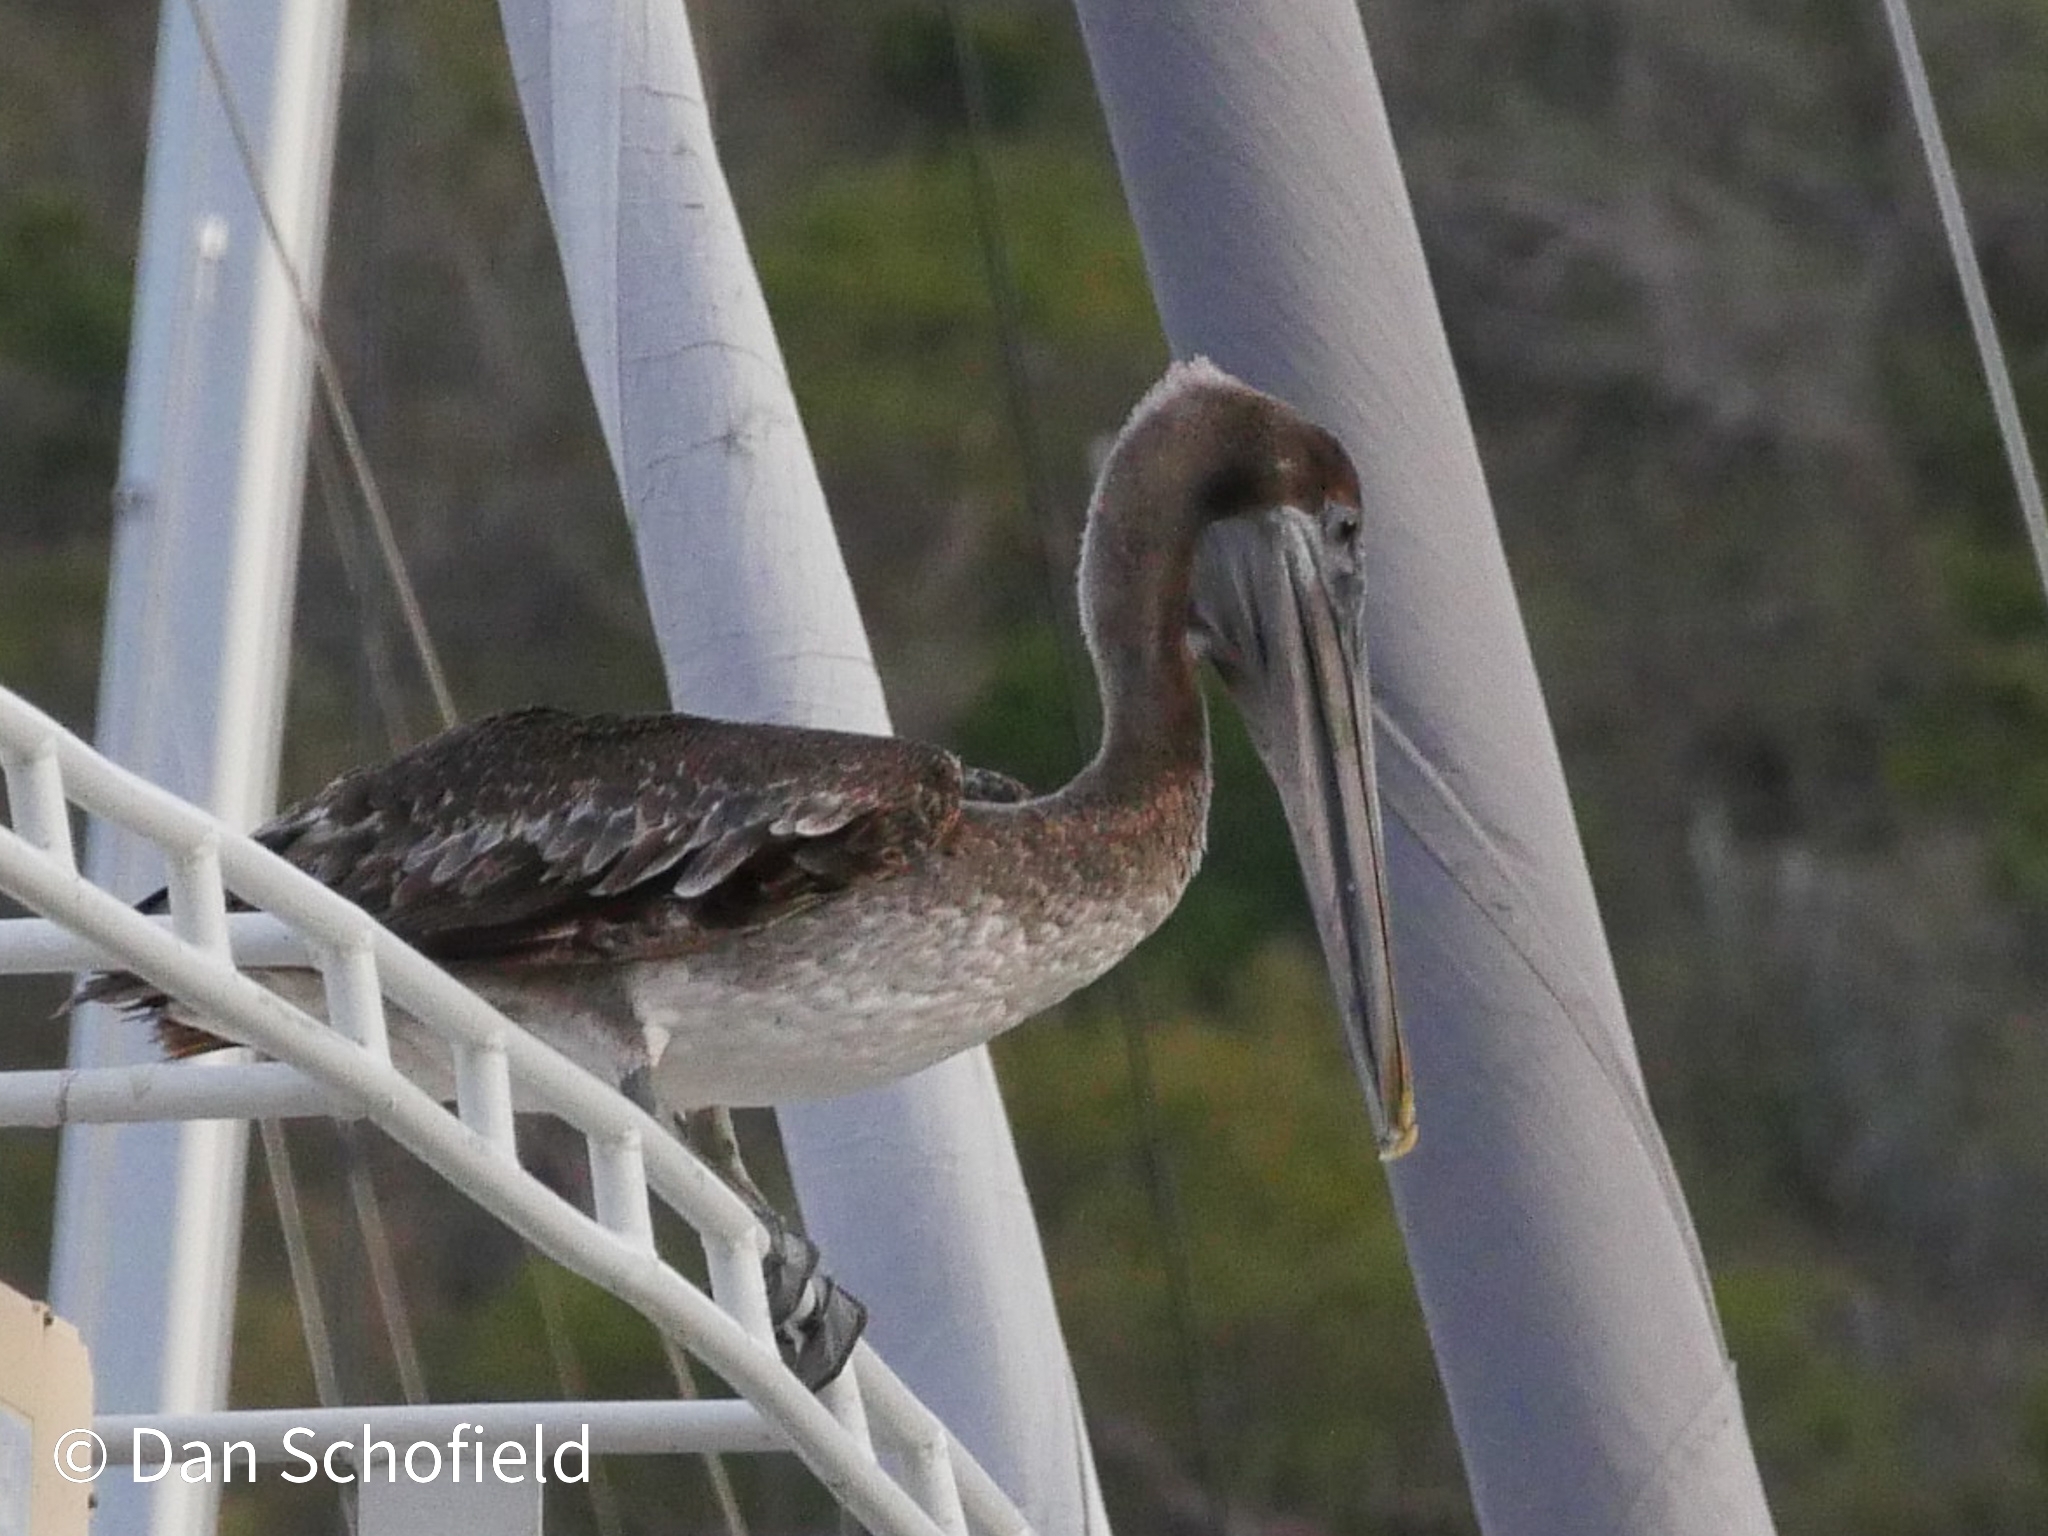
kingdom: Animalia
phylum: Chordata
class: Aves
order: Pelecaniformes
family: Pelecanidae
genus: Pelecanus
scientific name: Pelecanus occidentalis
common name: Brown pelican
